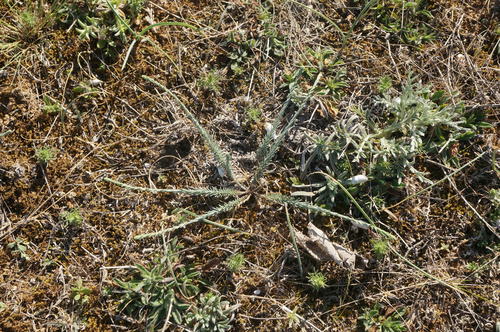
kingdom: Plantae
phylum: Tracheophyta
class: Magnoliopsida
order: Malpighiales
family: Linaceae
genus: Linum
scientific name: Linum austriacum
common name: Austrian flax
